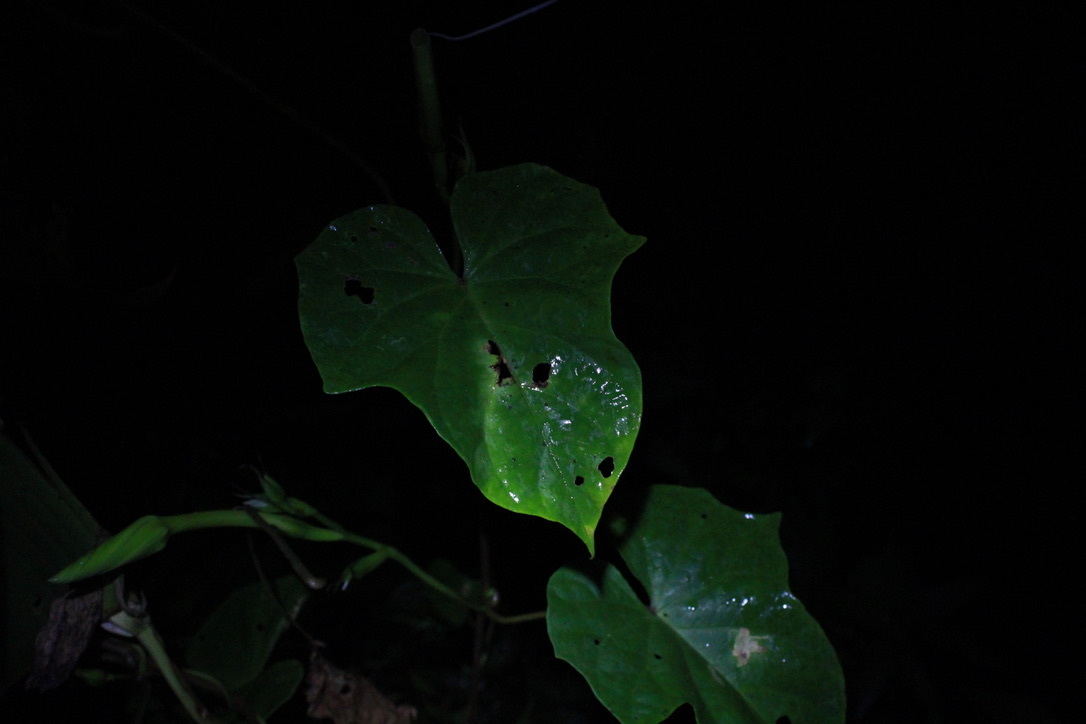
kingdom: Plantae
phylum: Tracheophyta
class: Magnoliopsida
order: Solanales
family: Convolvulaceae
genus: Ipomoea
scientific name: Ipomoea alba
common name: Moonflower
